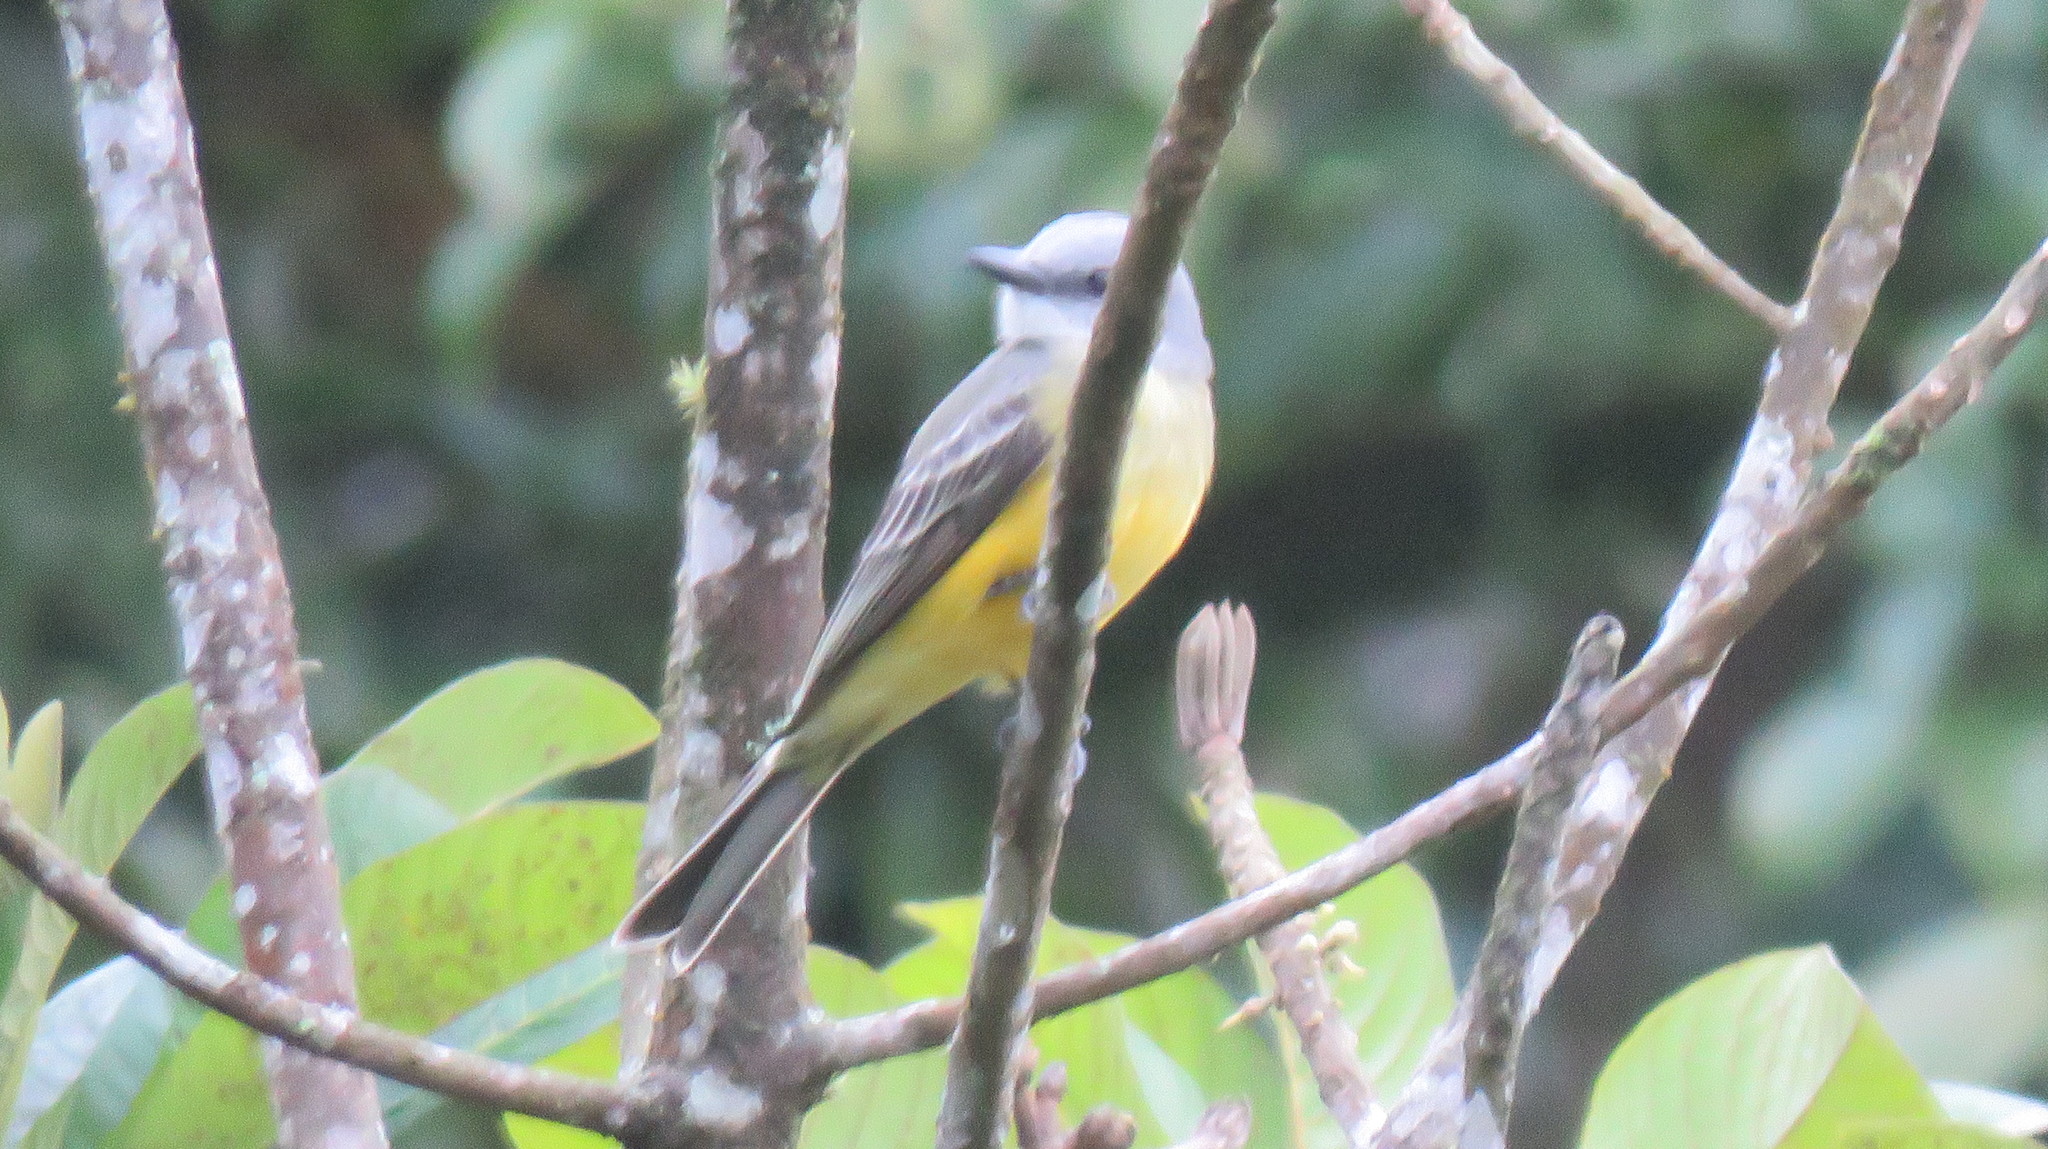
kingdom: Animalia
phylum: Chordata
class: Aves
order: Passeriformes
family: Tyrannidae
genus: Tyrannus
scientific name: Tyrannus melancholicus
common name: Tropical kingbird
